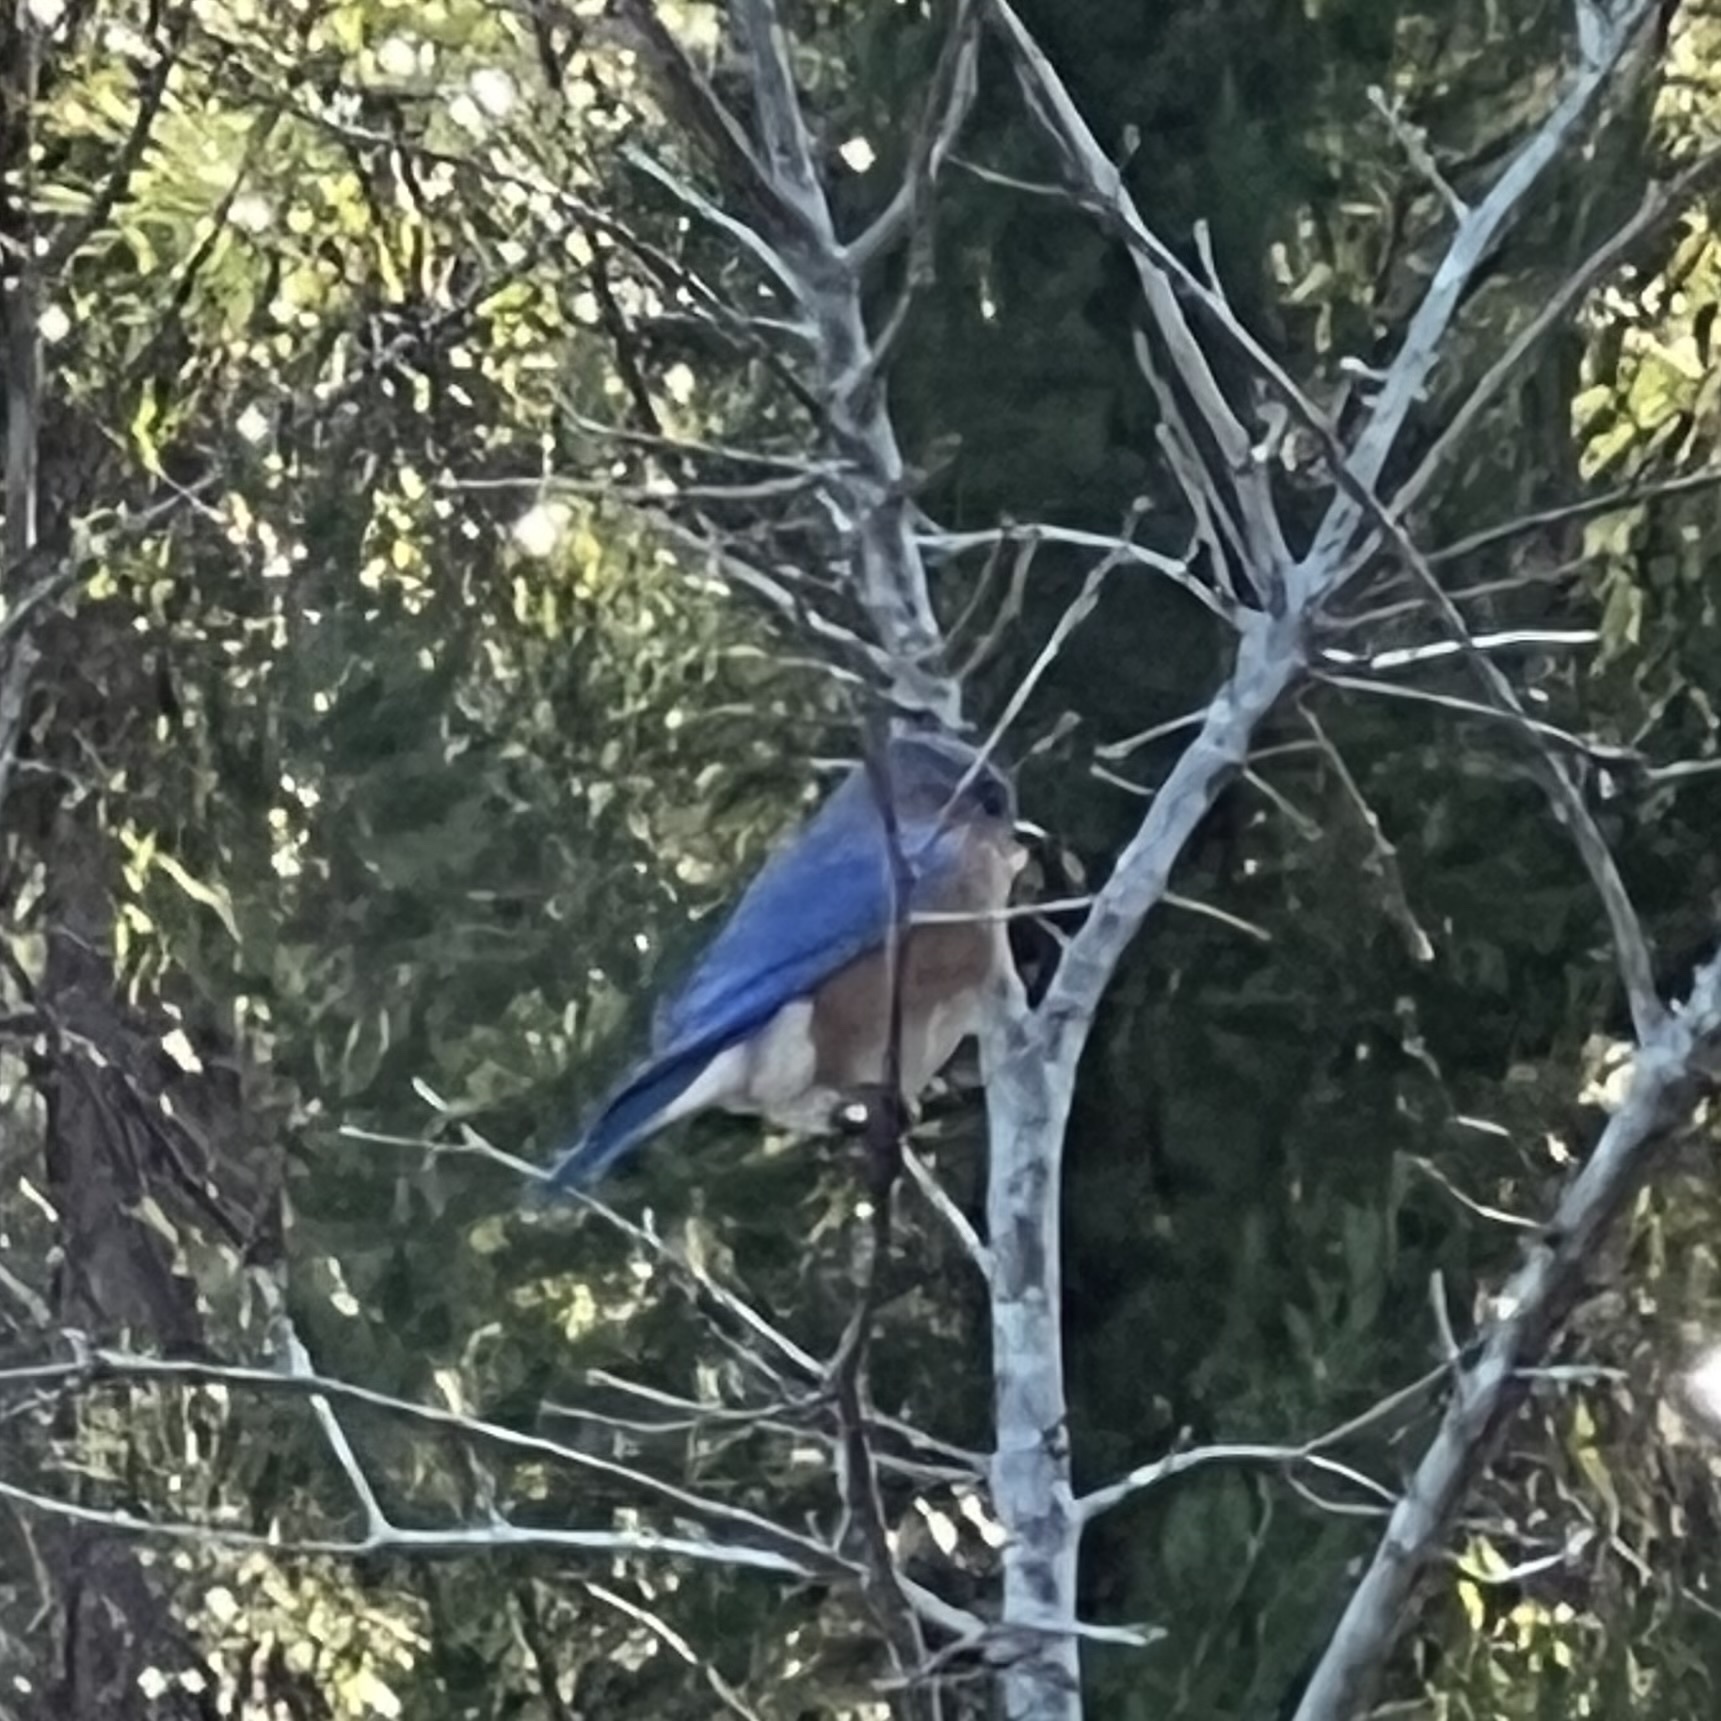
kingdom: Animalia
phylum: Chordata
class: Aves
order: Passeriformes
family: Turdidae
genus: Sialia
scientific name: Sialia sialis
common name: Eastern bluebird
